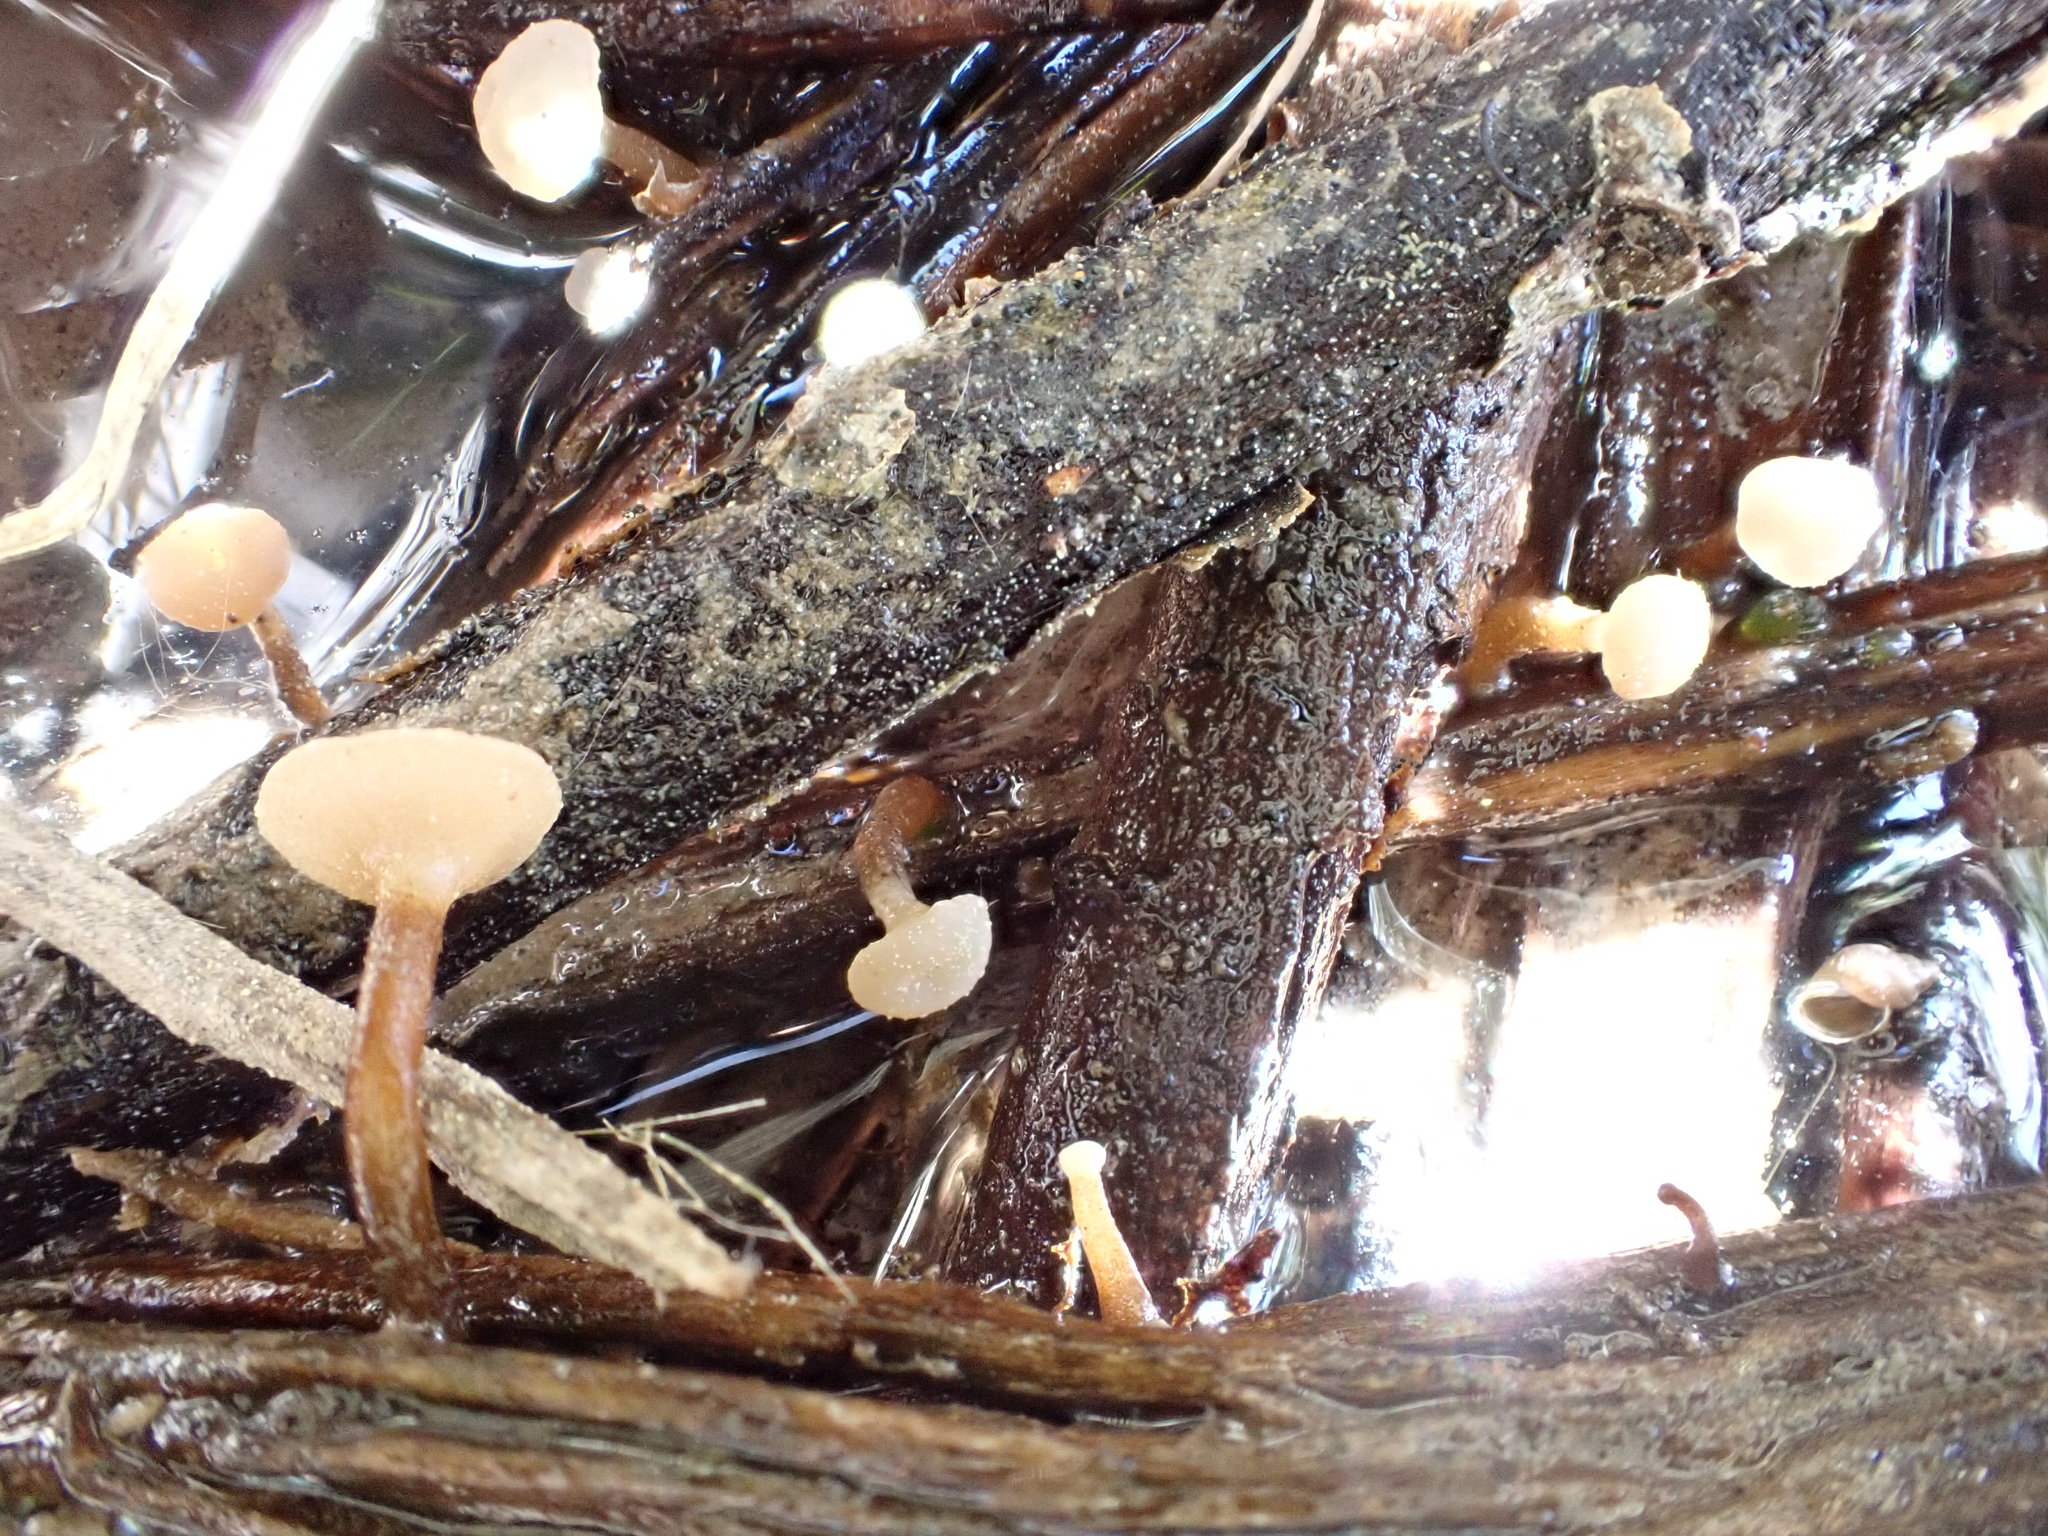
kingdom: Fungi
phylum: Ascomycota
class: Leotiomycetes
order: Helotiales
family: Tricladiaceae
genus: Cudoniella
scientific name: Cudoniella clavus
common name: Spring pin
